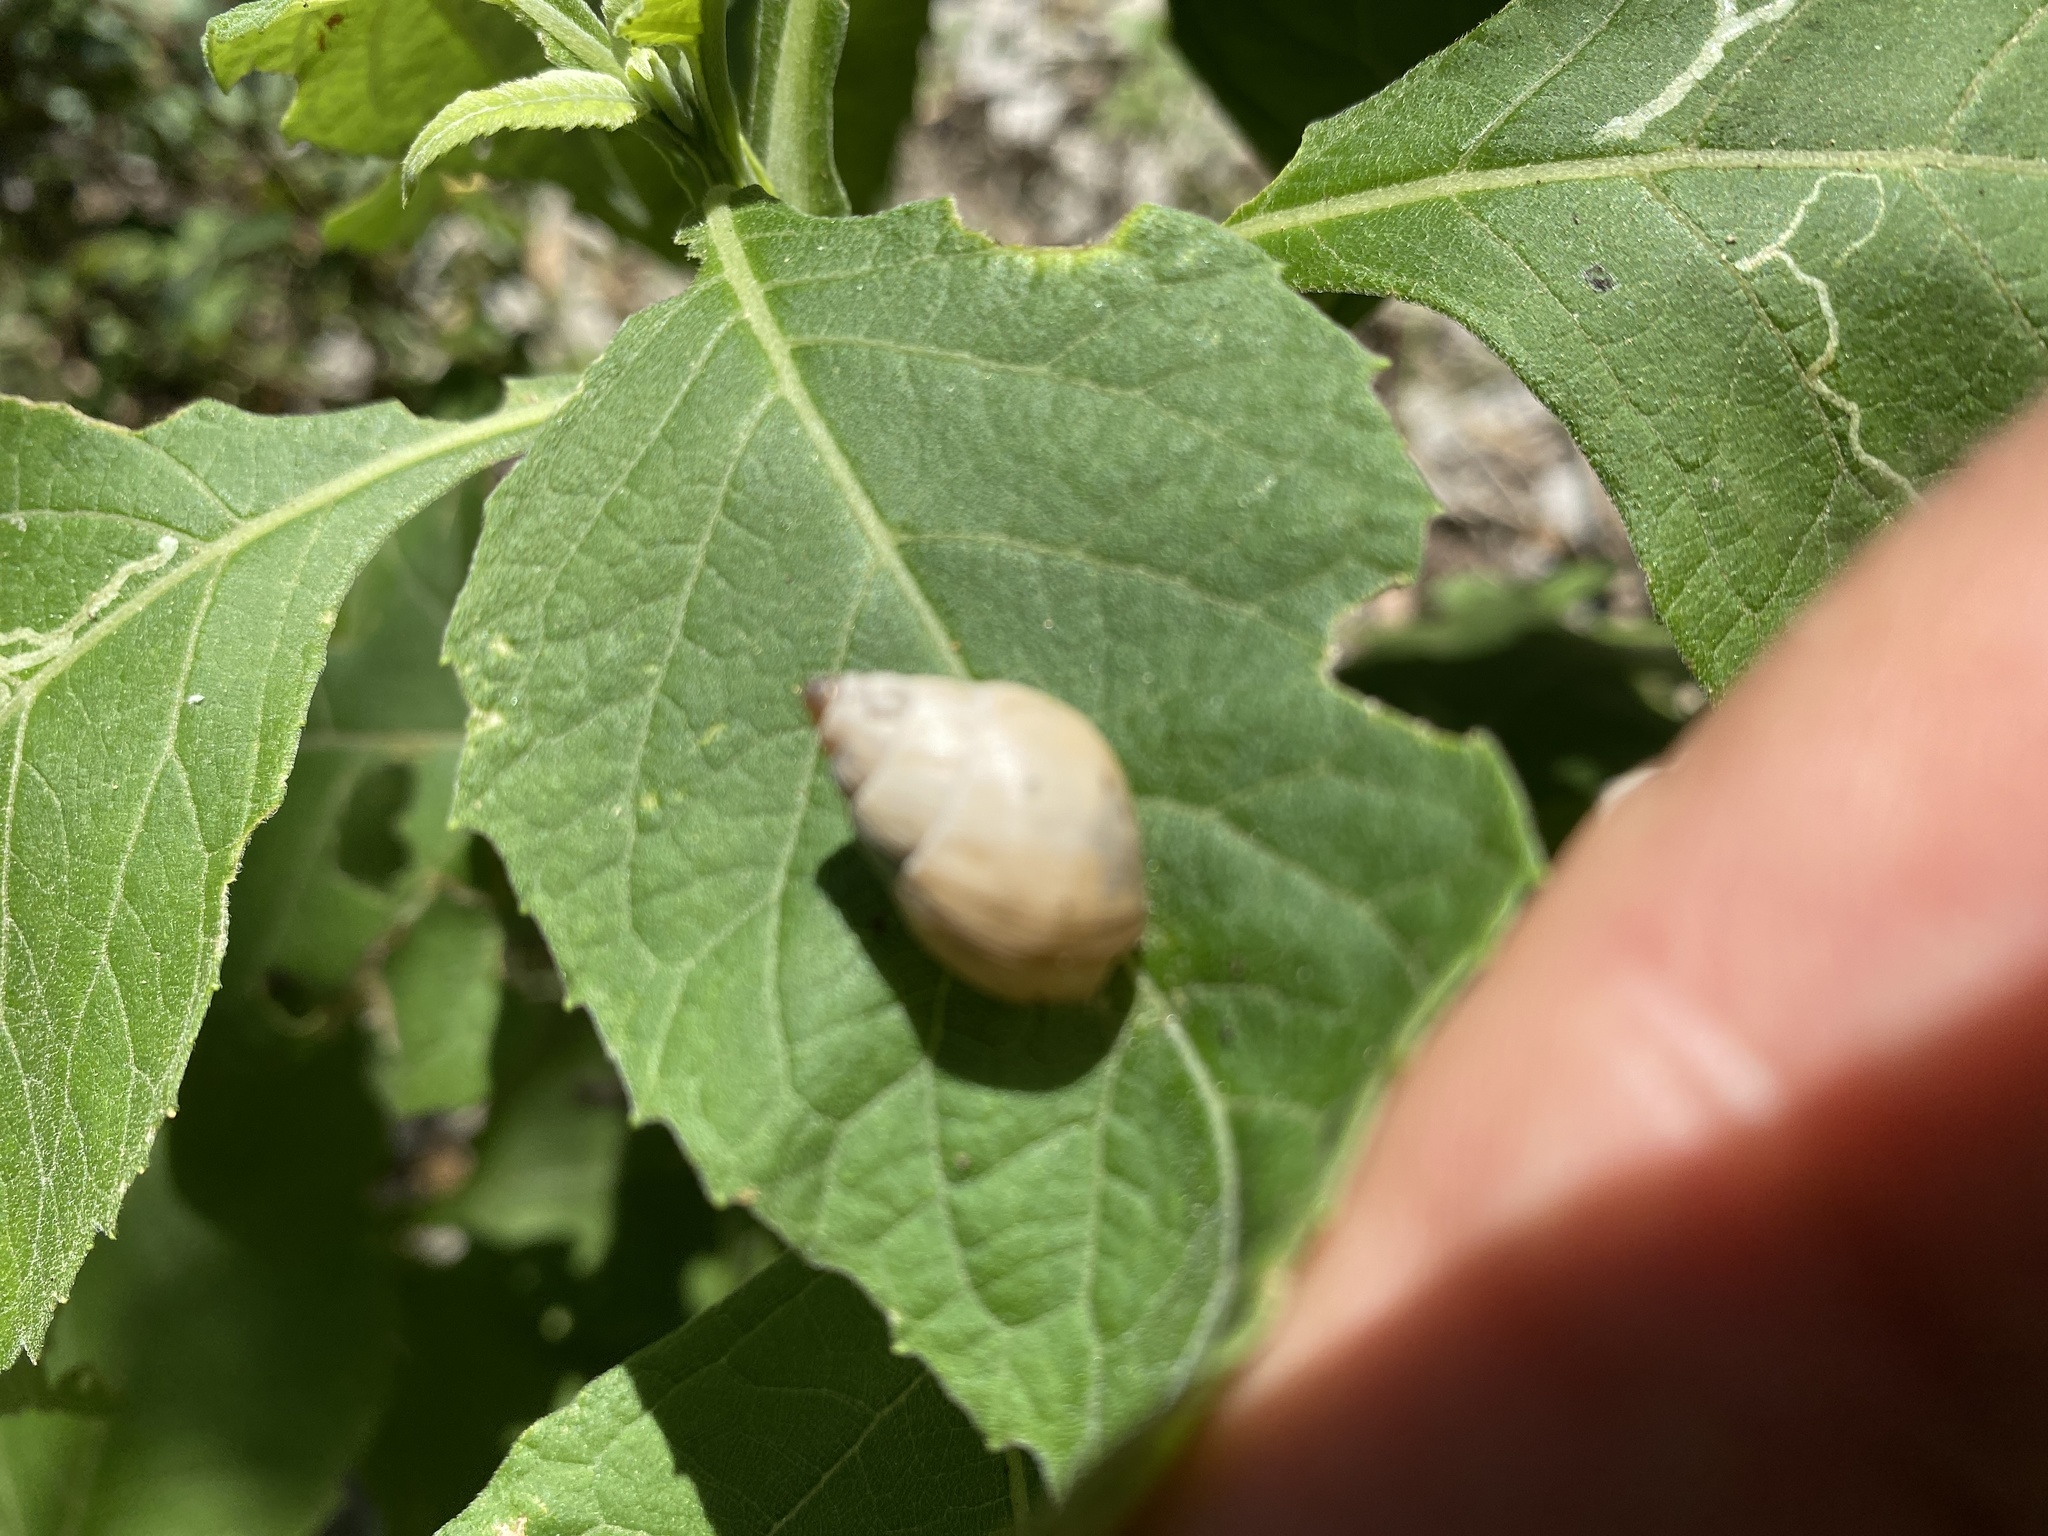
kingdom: Animalia
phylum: Mollusca
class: Gastropoda
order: Stylommatophora
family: Bulimulidae
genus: Rabdotus
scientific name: Rabdotus dealbatus
